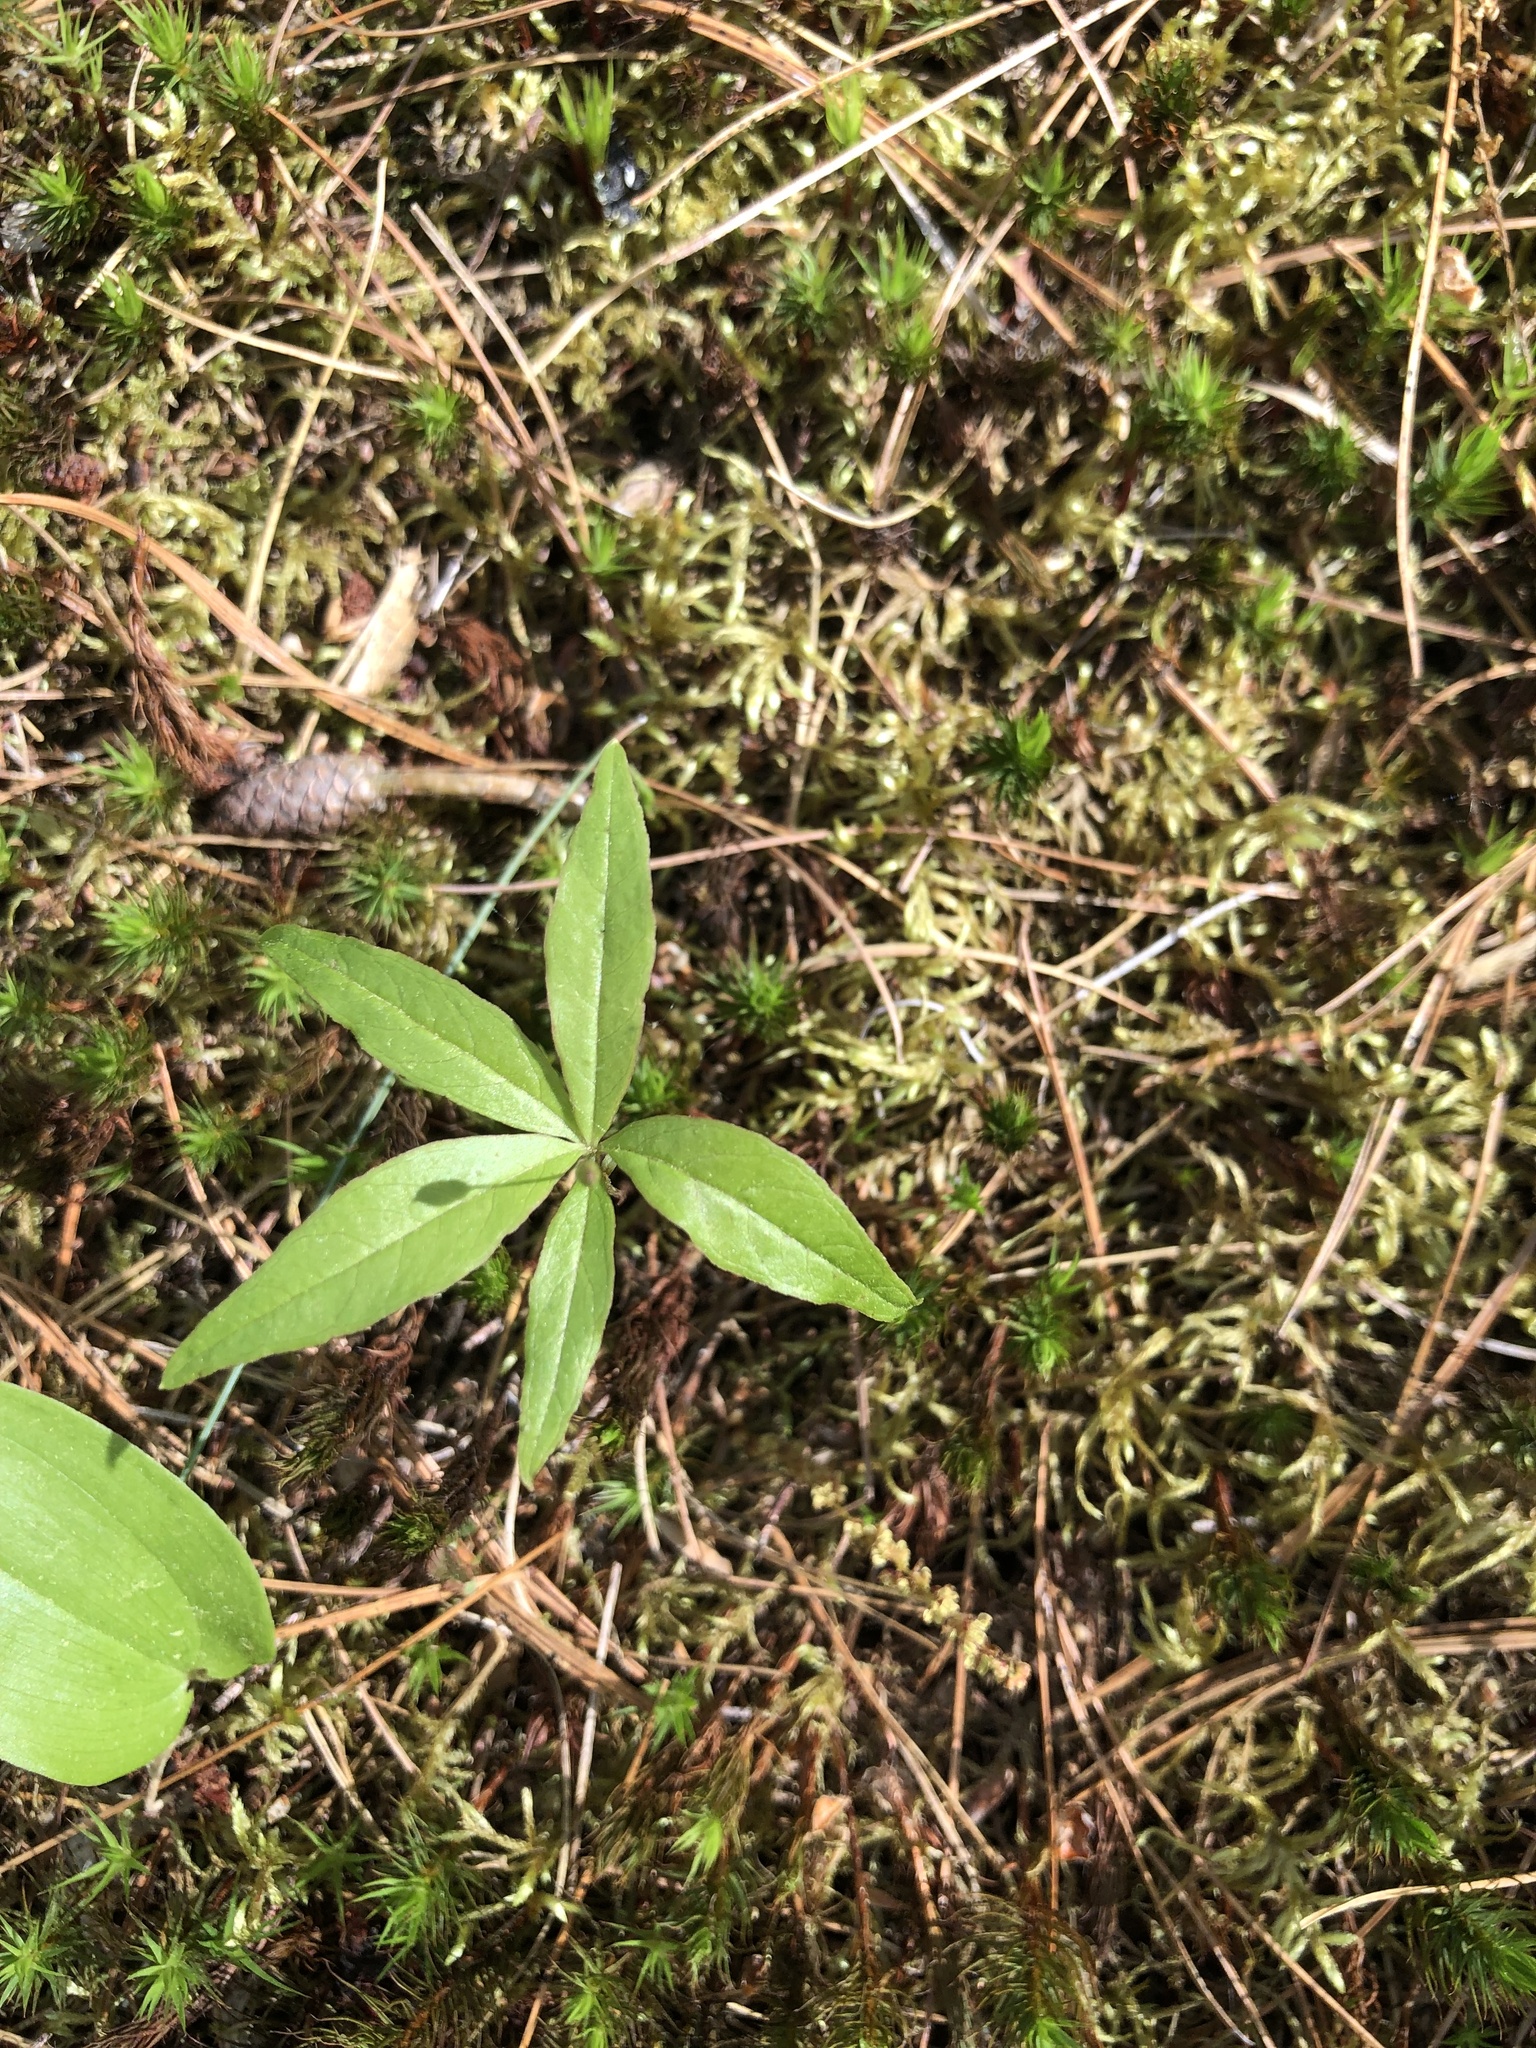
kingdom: Plantae
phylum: Tracheophyta
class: Magnoliopsida
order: Ericales
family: Primulaceae
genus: Lysimachia
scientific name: Lysimachia borealis
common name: American starflower
